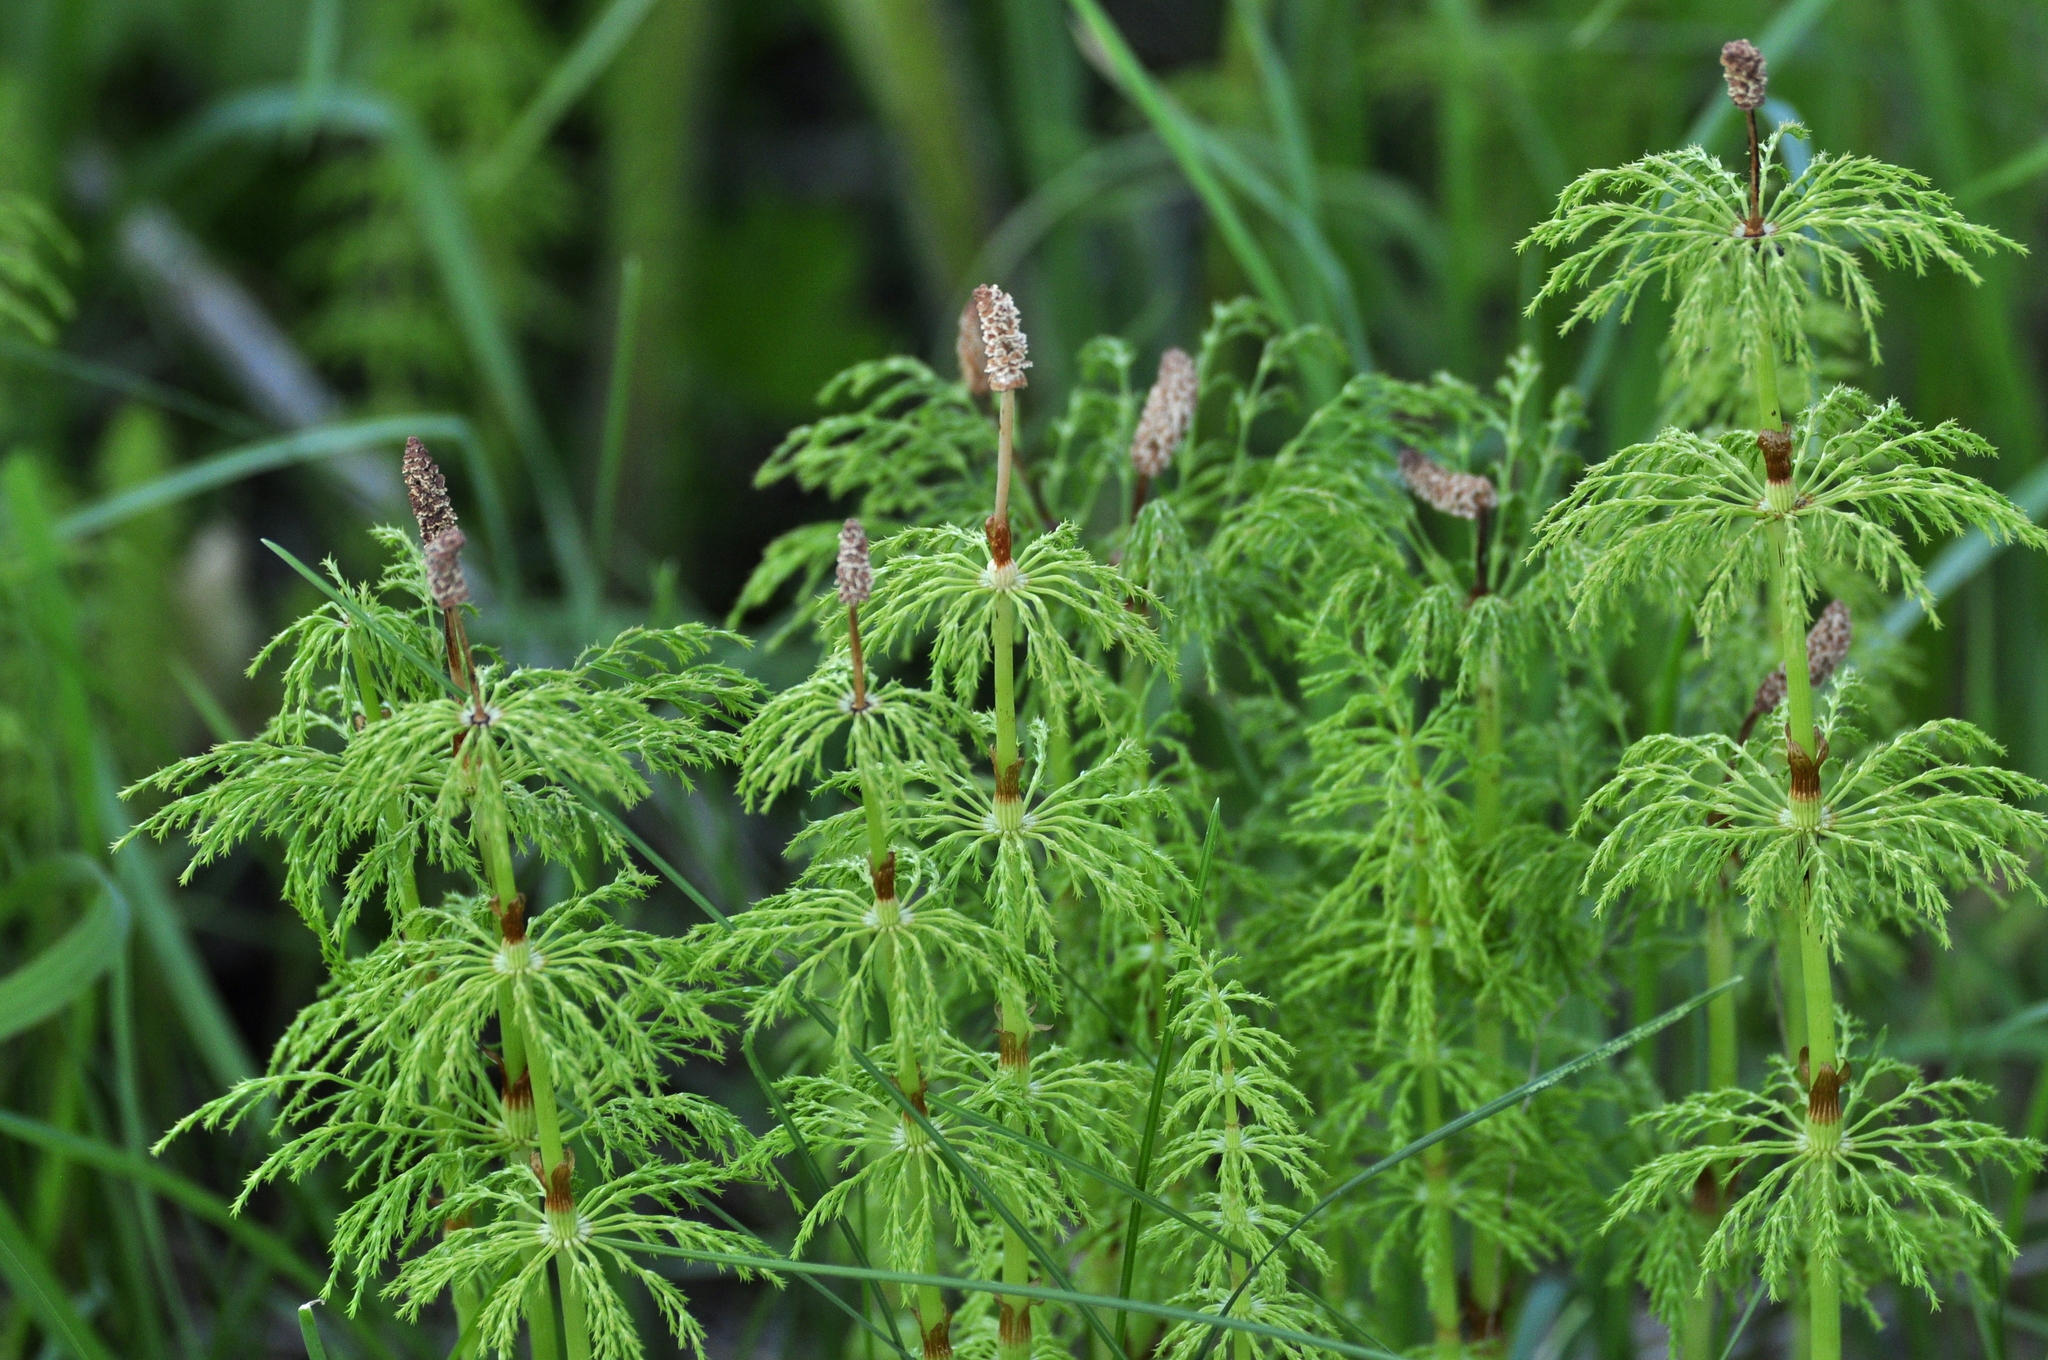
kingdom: Plantae
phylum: Tracheophyta
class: Polypodiopsida
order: Equisetales
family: Equisetaceae
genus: Equisetum
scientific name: Equisetum sylvaticum
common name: Wood horsetail
